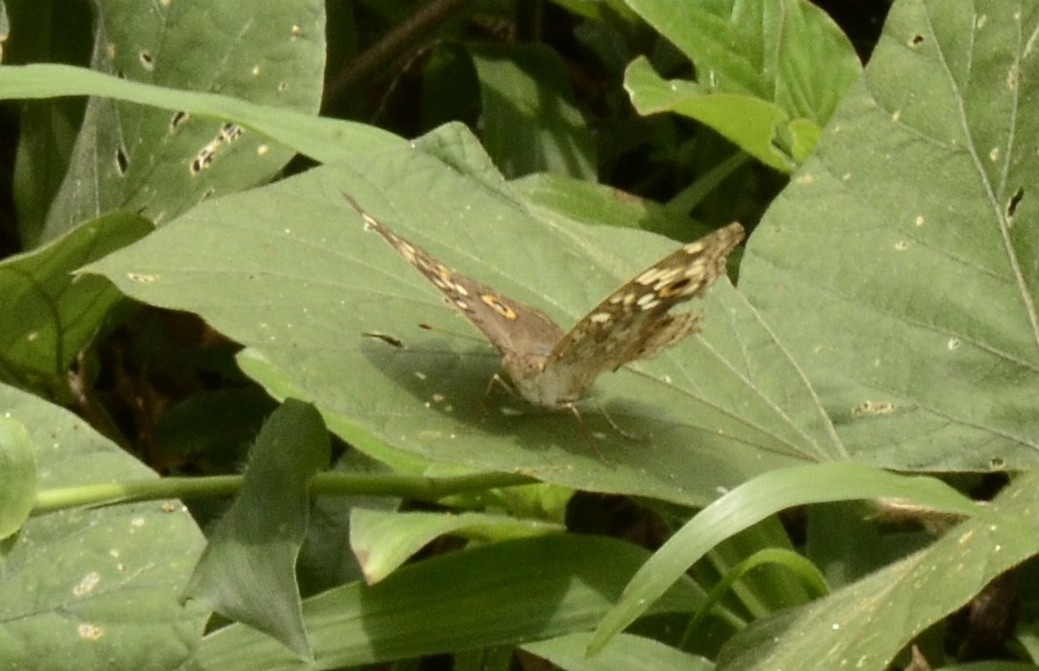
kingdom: Animalia
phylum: Arthropoda
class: Insecta
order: Lepidoptera
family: Nymphalidae
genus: Junonia
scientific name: Junonia lemonias
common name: Lemon pansy
